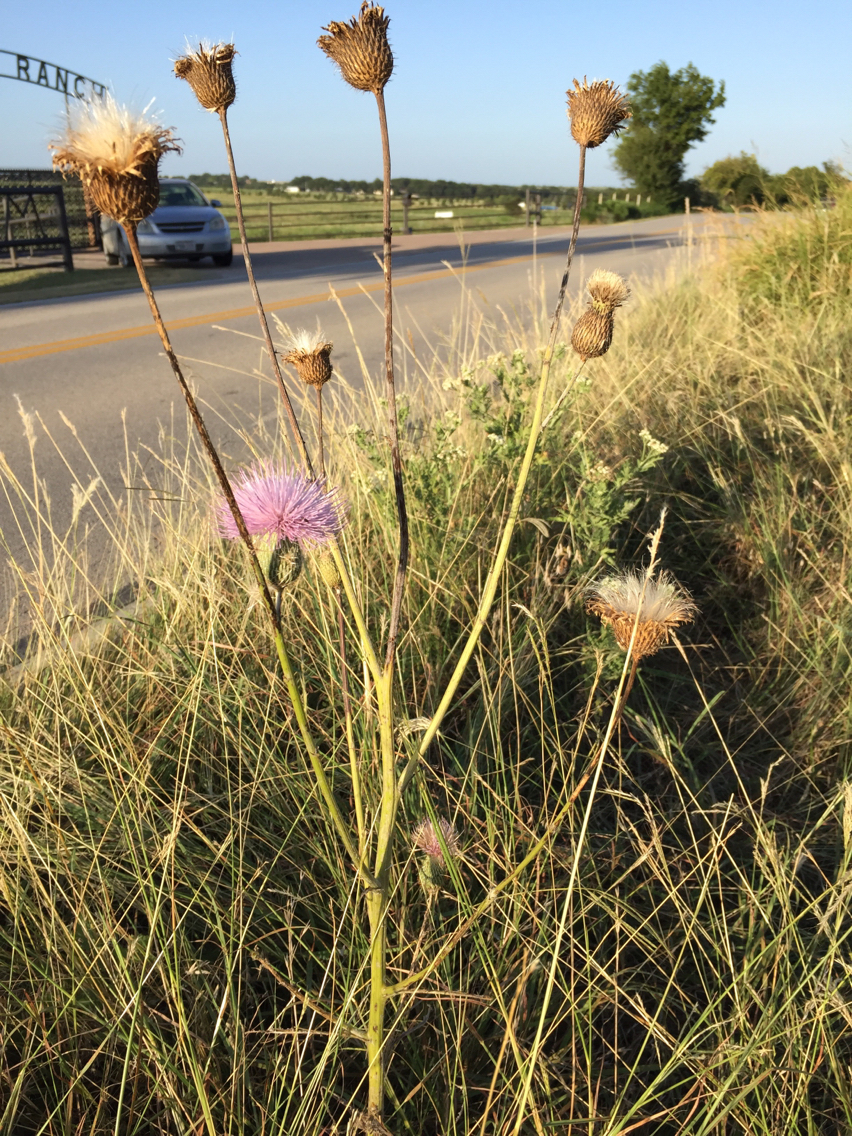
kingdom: Plantae
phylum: Tracheophyta
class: Magnoliopsida
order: Asterales
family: Asteraceae
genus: Cirsium
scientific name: Cirsium texanum
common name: Texas purple thistle
